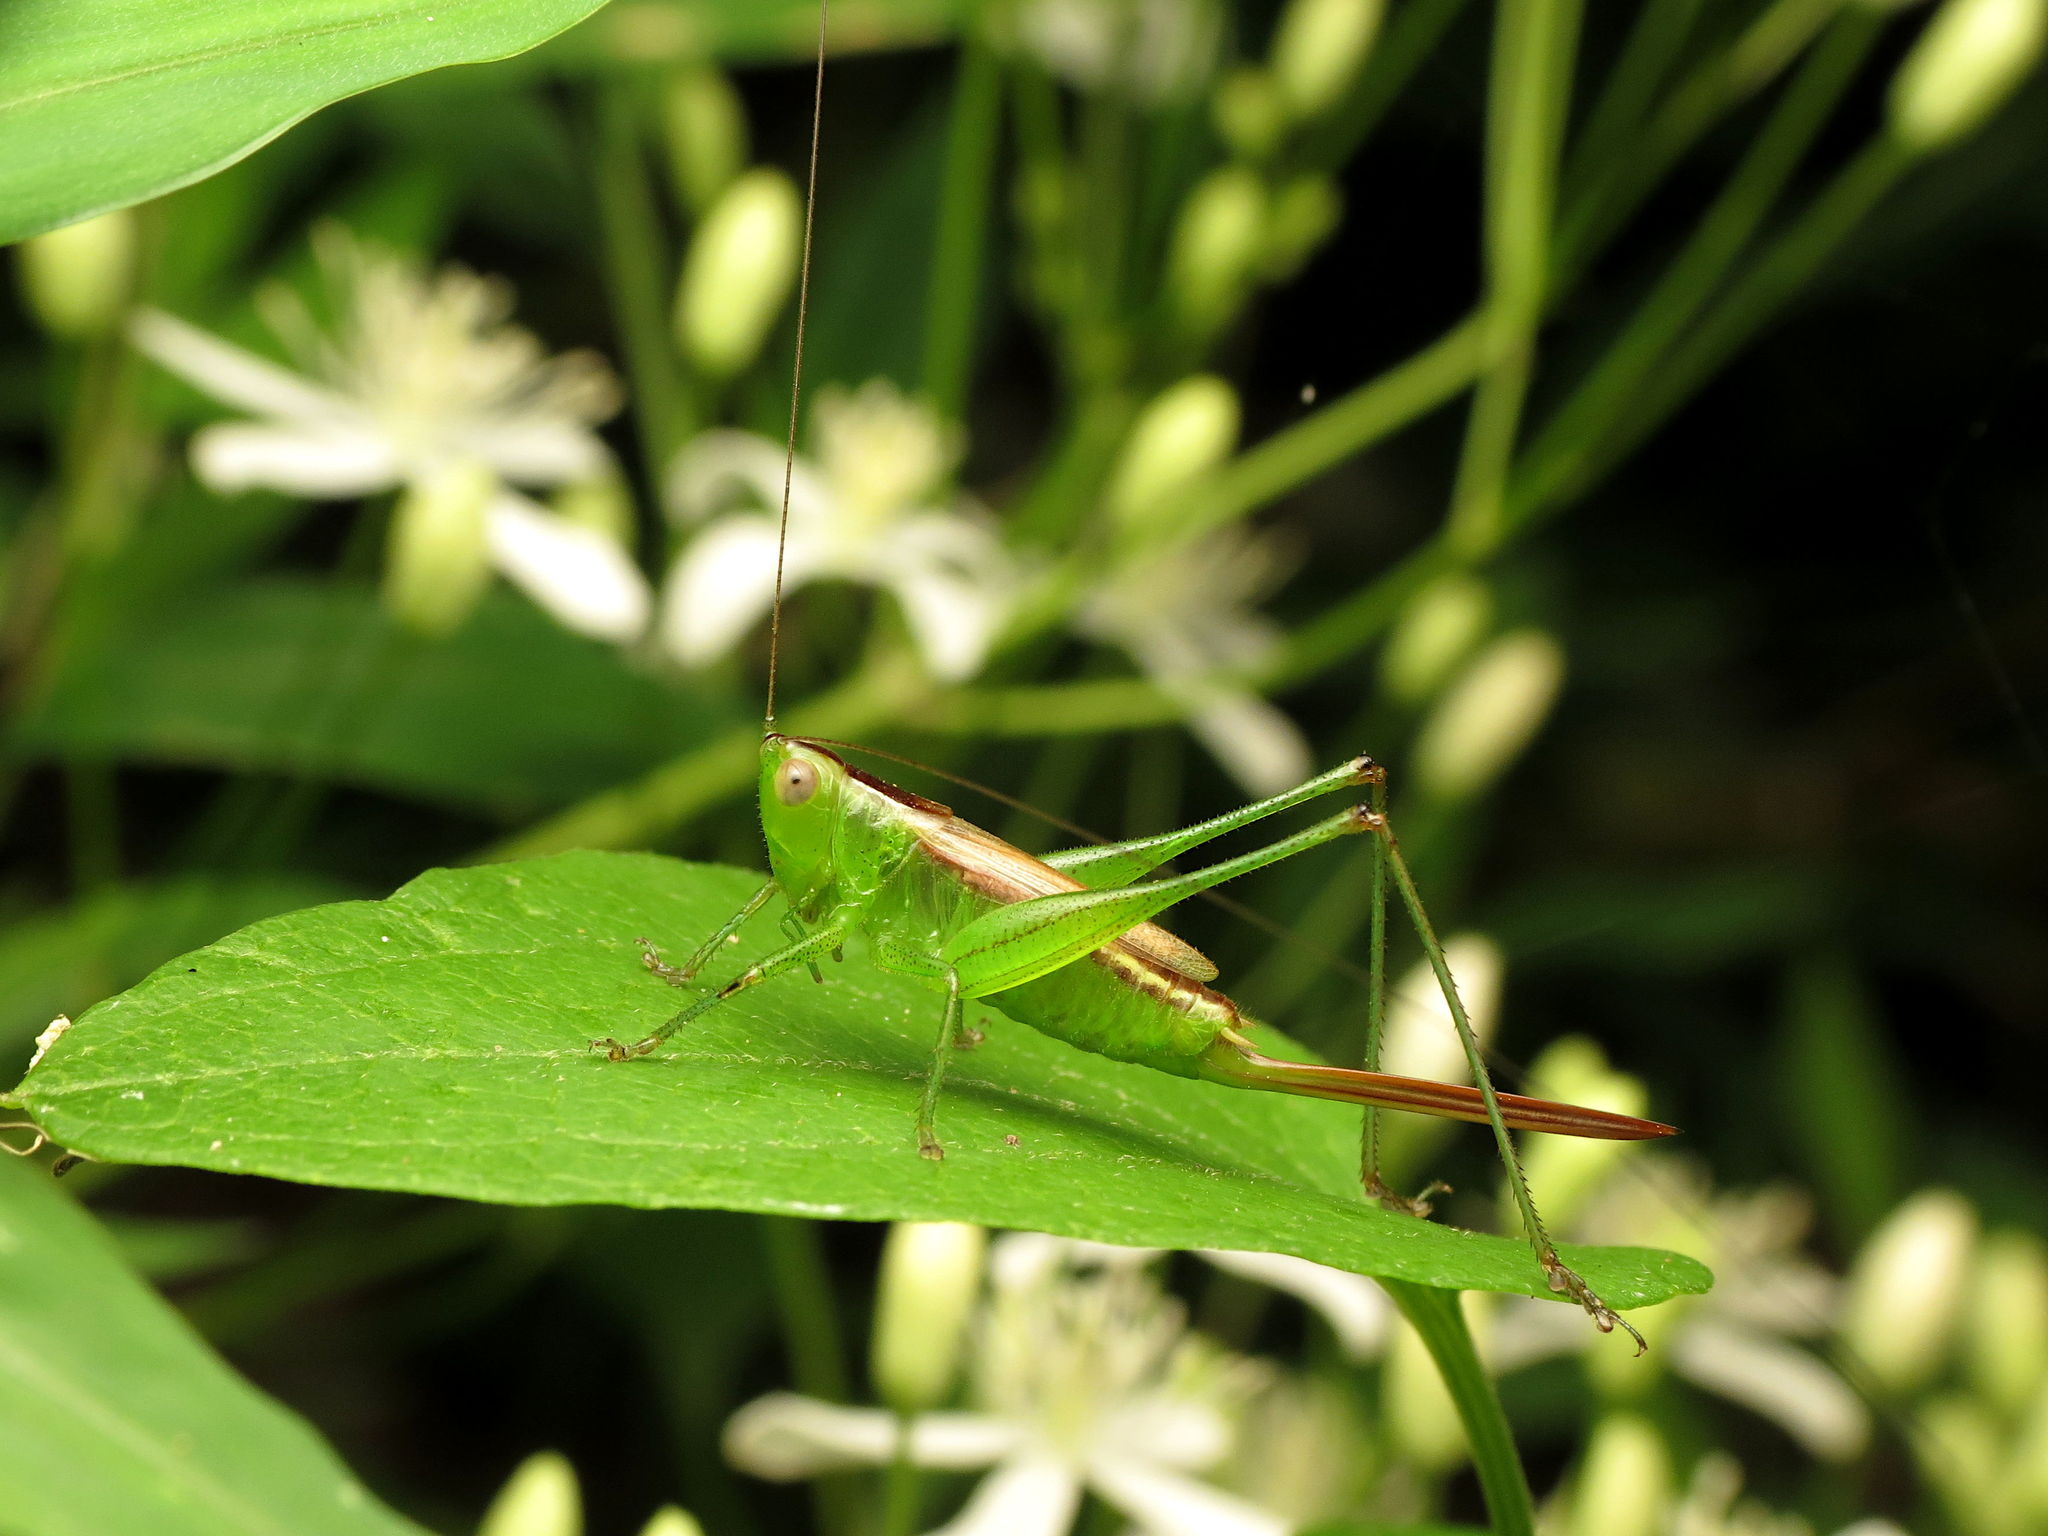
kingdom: Animalia
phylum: Arthropoda
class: Insecta
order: Orthoptera
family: Tettigoniidae
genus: Conocephalus
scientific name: Conocephalus brevipennis
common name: Short-winged meadow katydid
